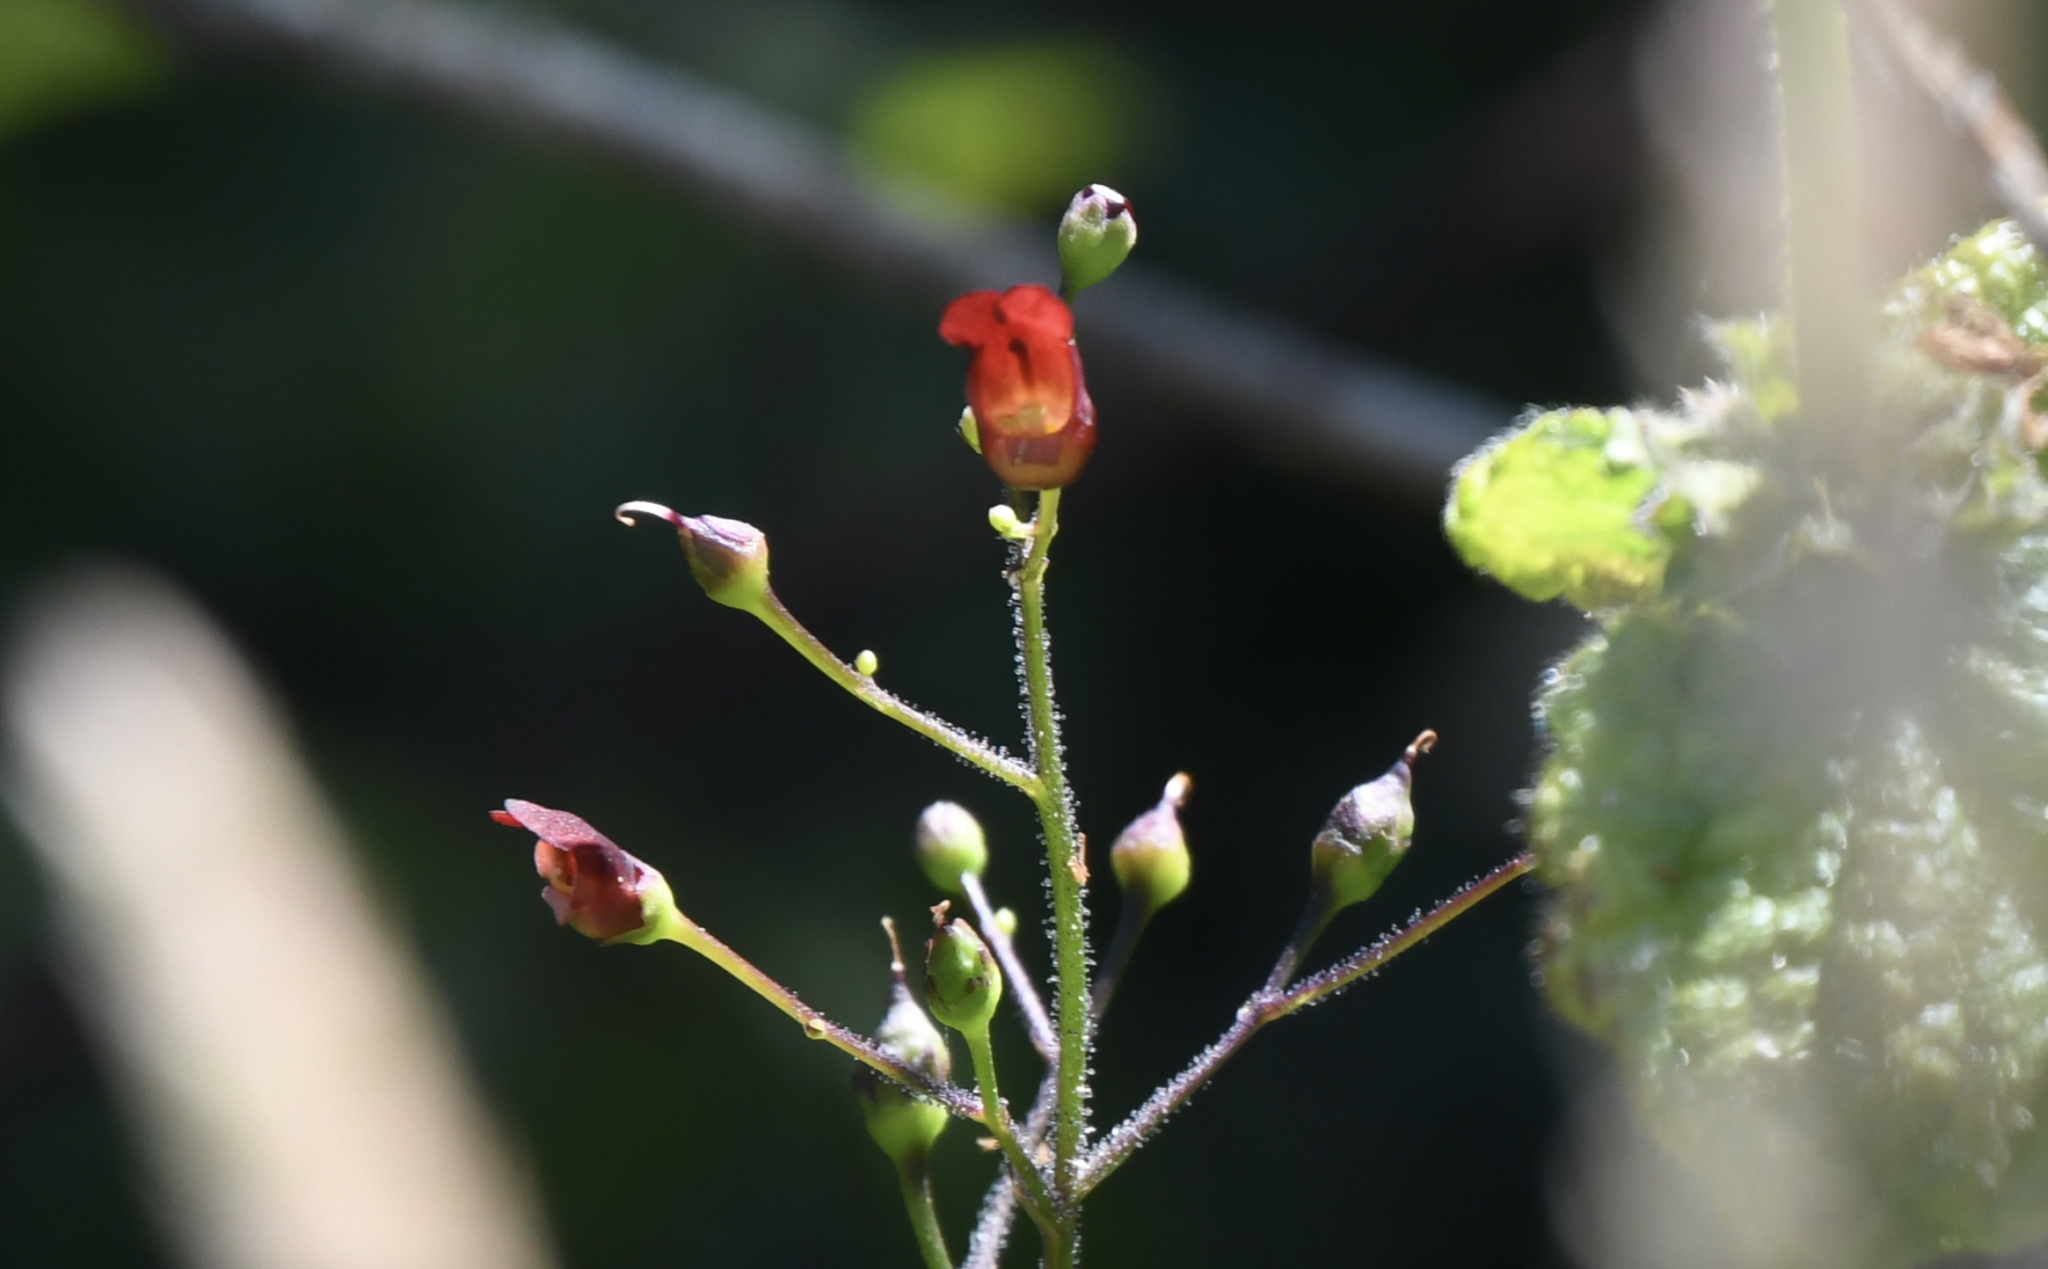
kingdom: Plantae
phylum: Tracheophyta
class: Magnoliopsida
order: Lamiales
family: Scrophulariaceae
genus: Scrophularia
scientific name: Scrophularia californica
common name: California figwort
